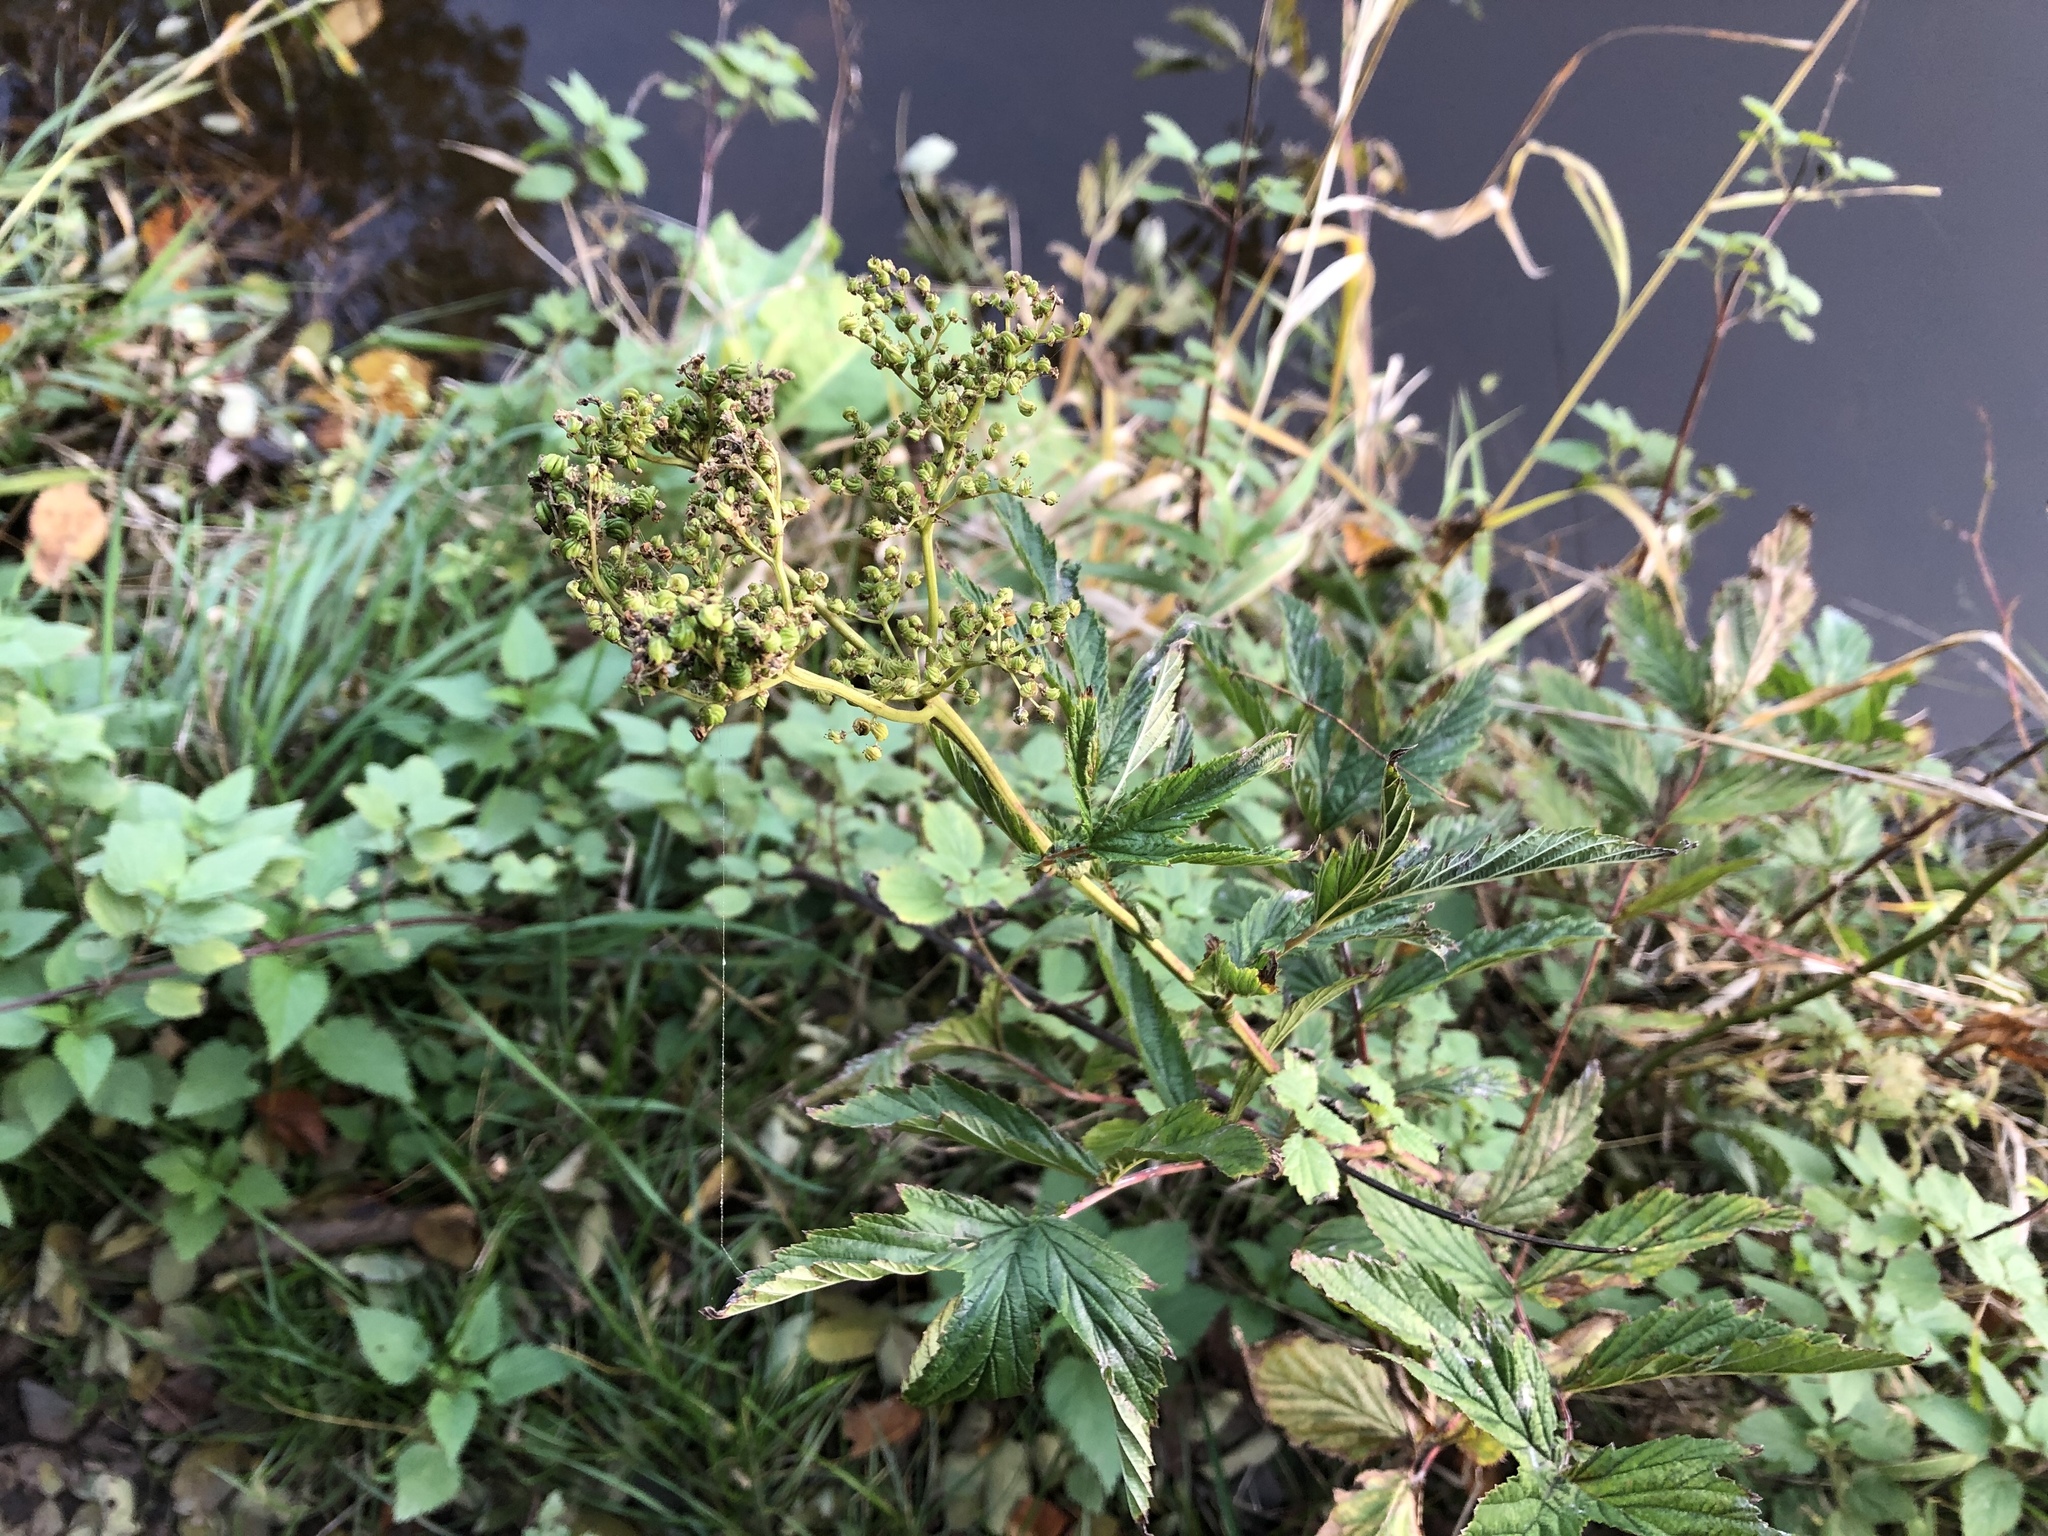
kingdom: Plantae
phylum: Tracheophyta
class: Magnoliopsida
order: Rosales
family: Rosaceae
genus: Filipendula
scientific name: Filipendula ulmaria
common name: Meadowsweet
